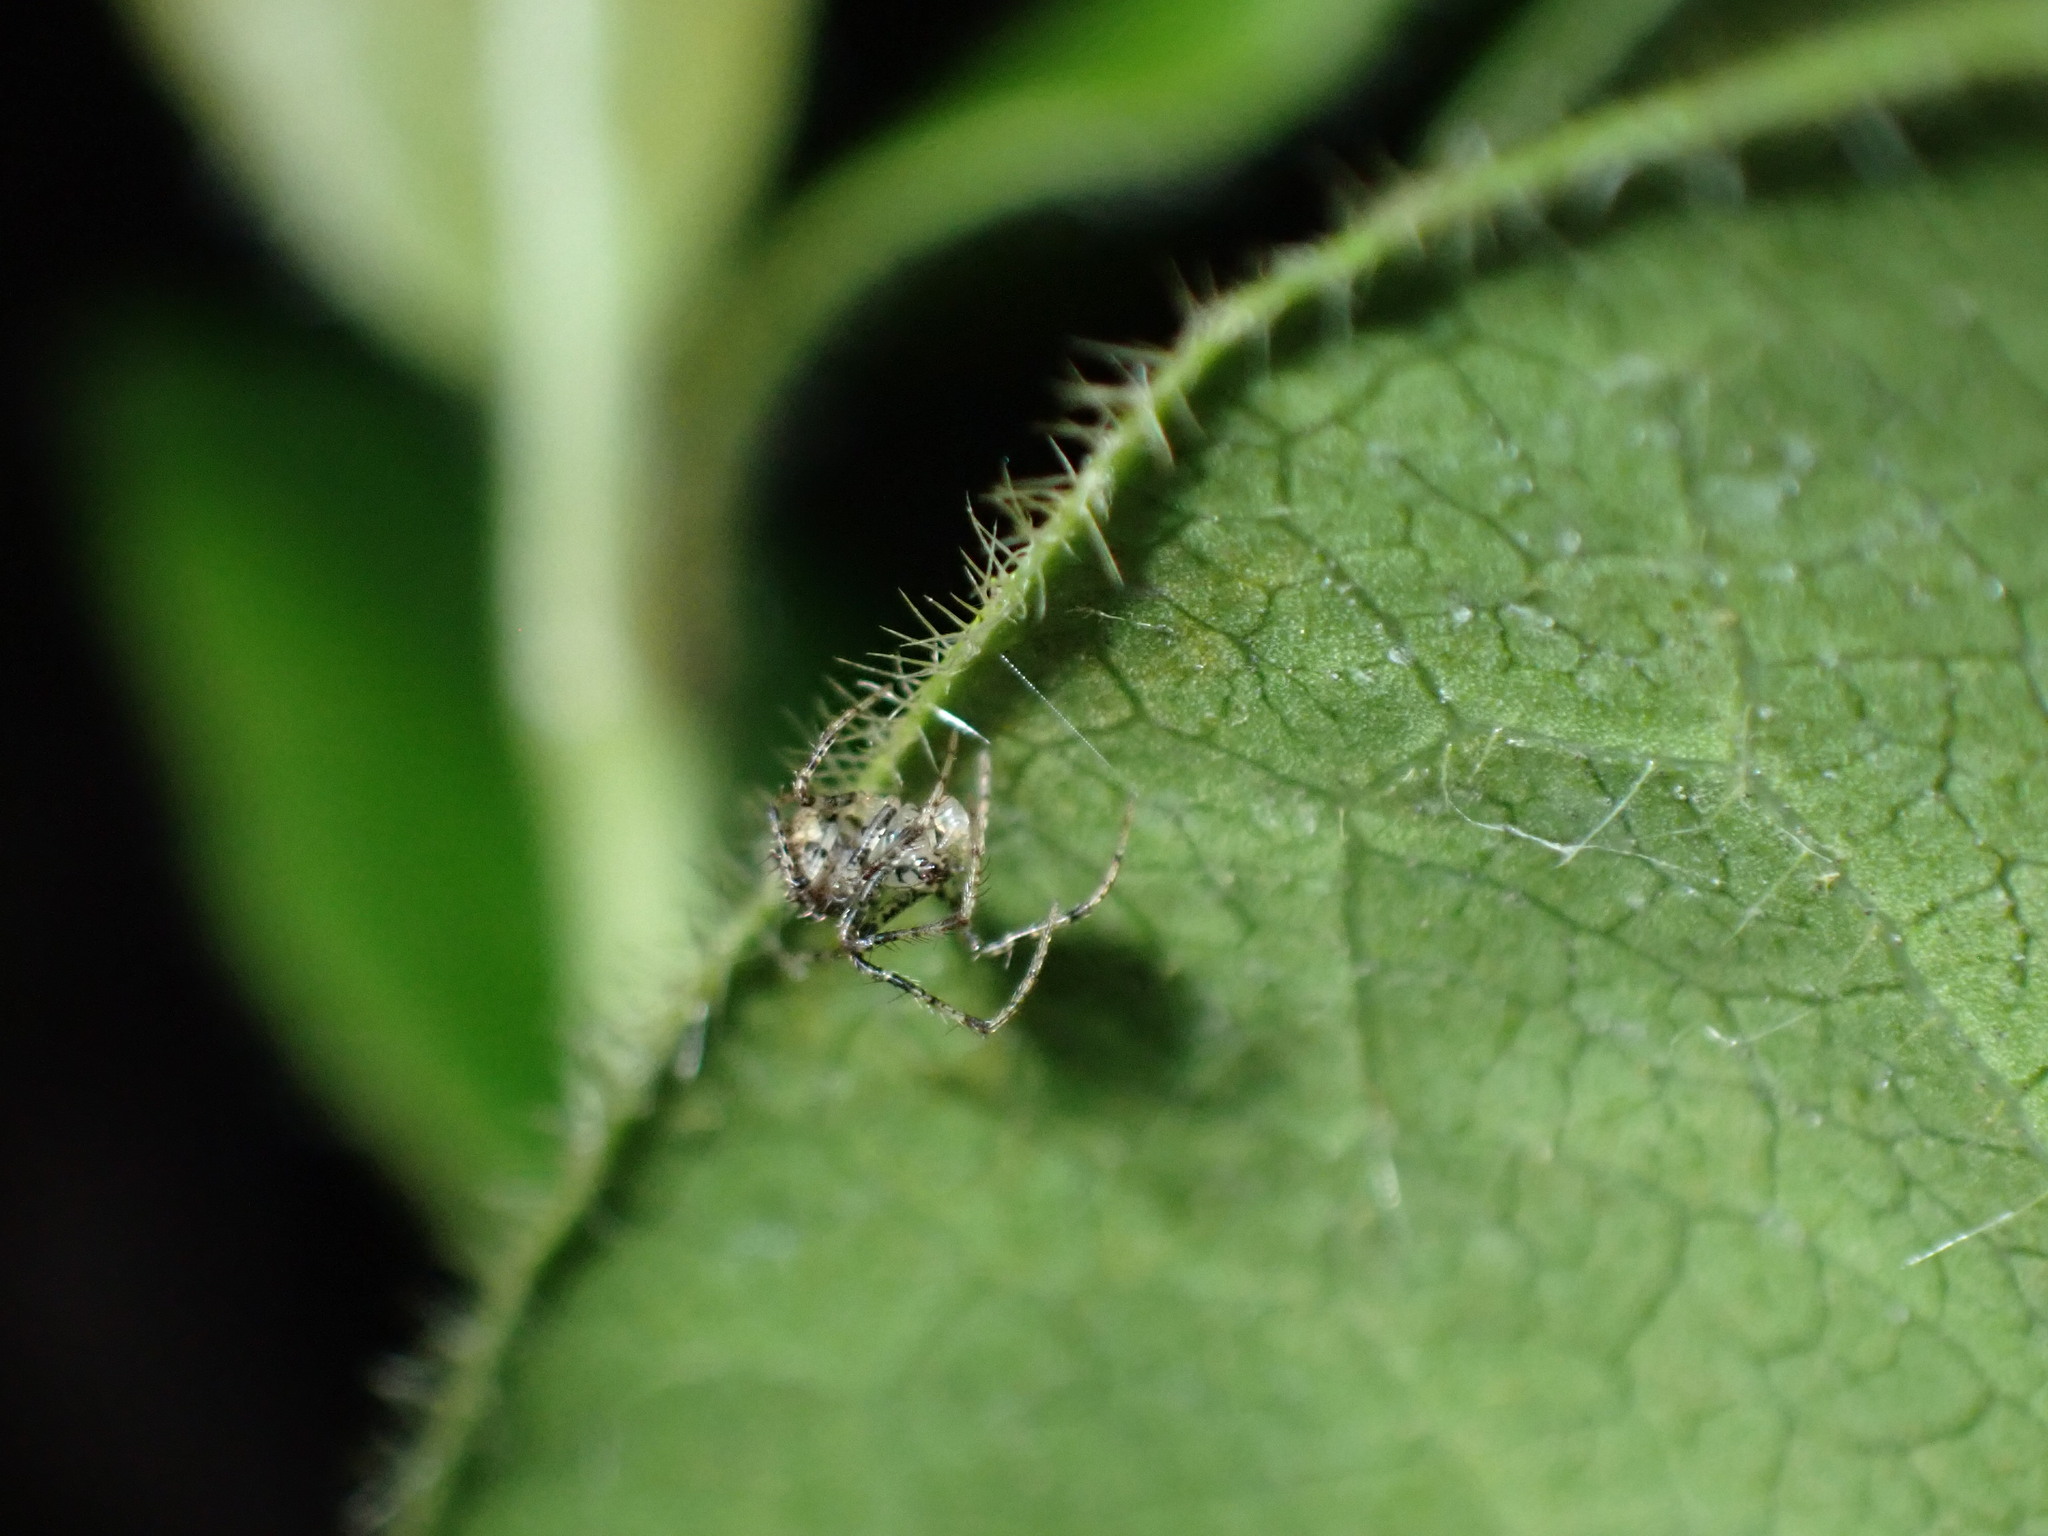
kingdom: Animalia
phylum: Arthropoda
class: Arachnida
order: Araneae
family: Mimetidae
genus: Ero
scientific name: Ero aphana
